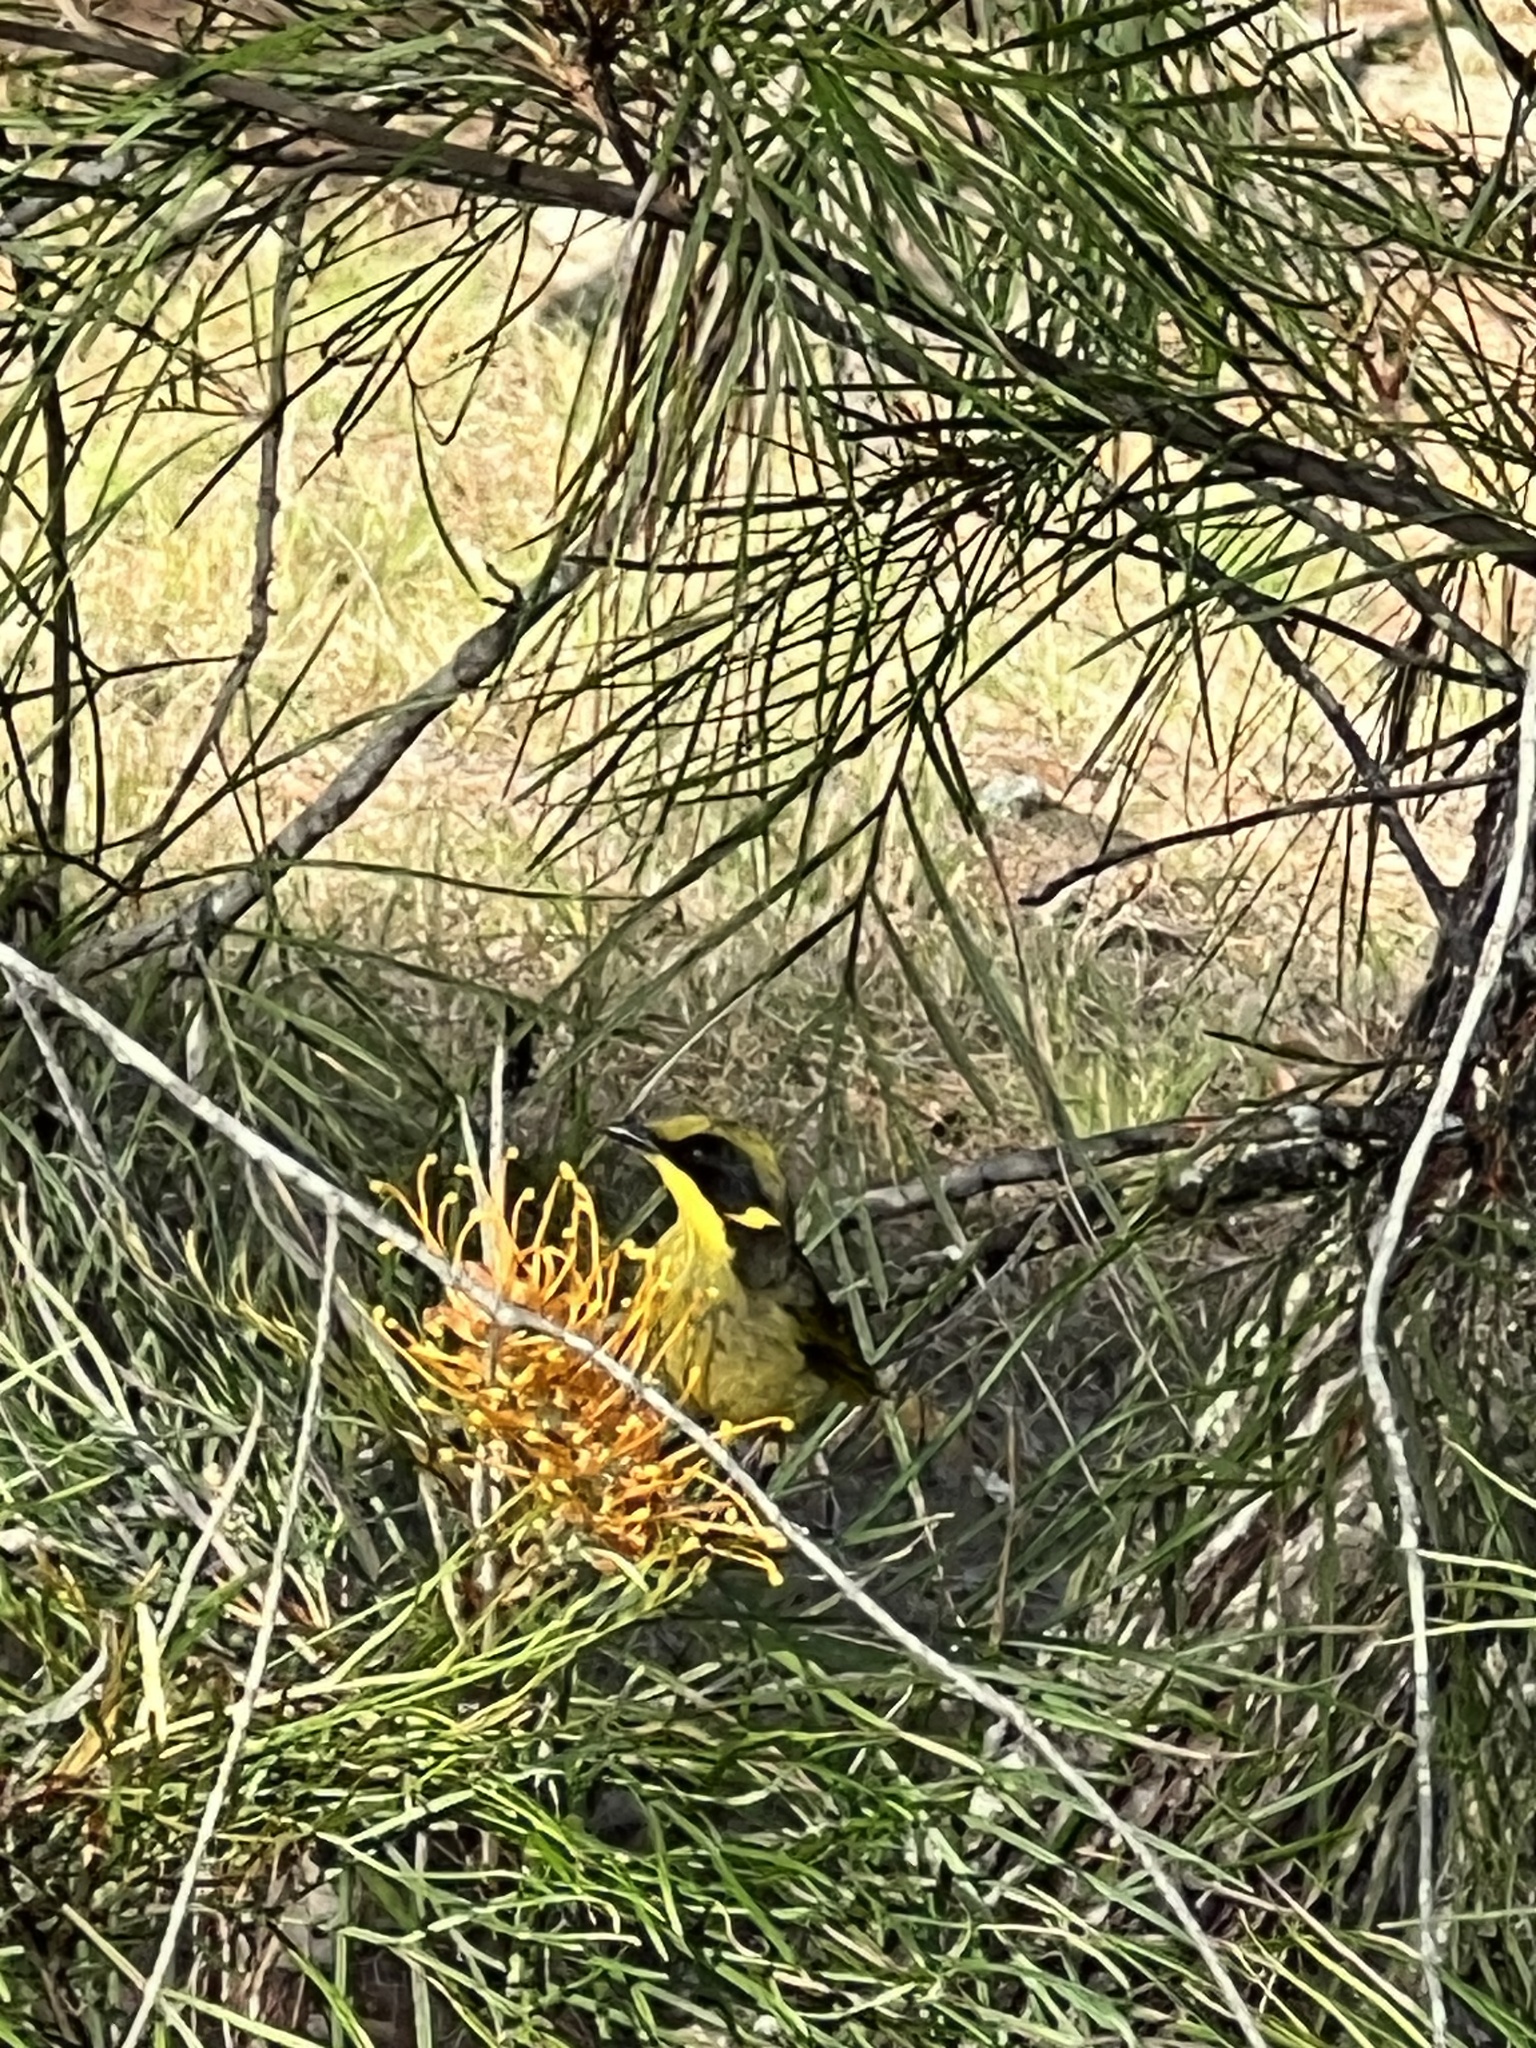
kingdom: Animalia
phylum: Chordata
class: Aves
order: Passeriformes
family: Meliphagidae
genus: Lichenostomus
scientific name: Lichenostomus melanops
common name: Yellow-tufted honeyeater
